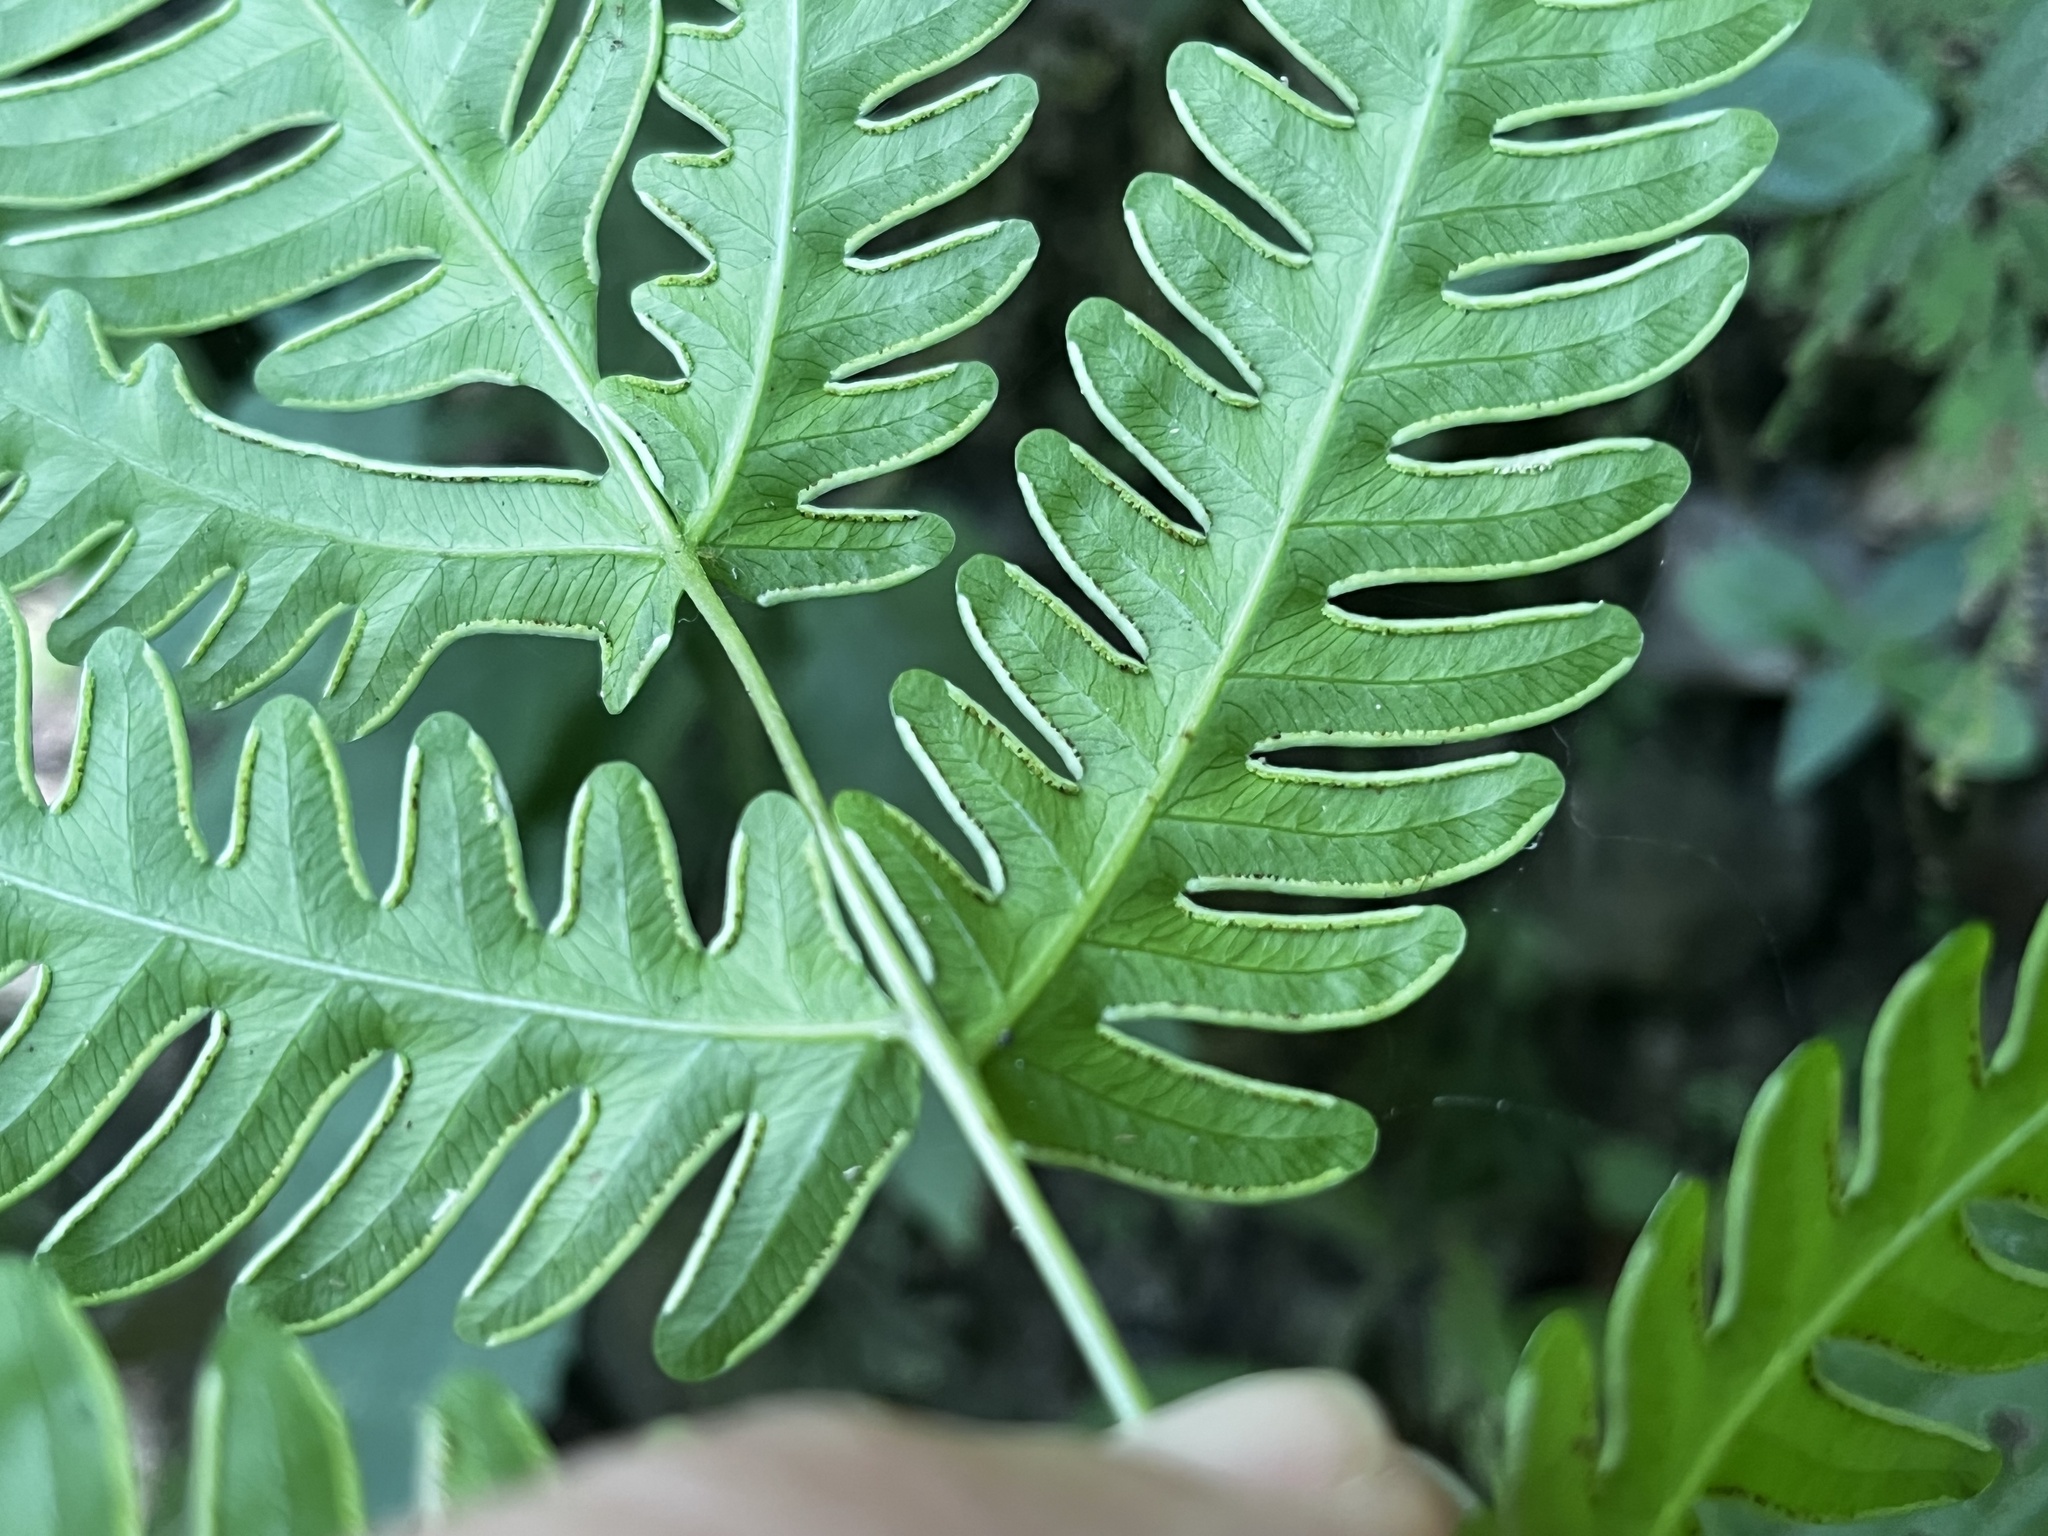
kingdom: Plantae
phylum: Tracheophyta
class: Polypodiopsida
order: Polypodiales
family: Pteridaceae
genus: Pteris
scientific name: Pteris biaurita
